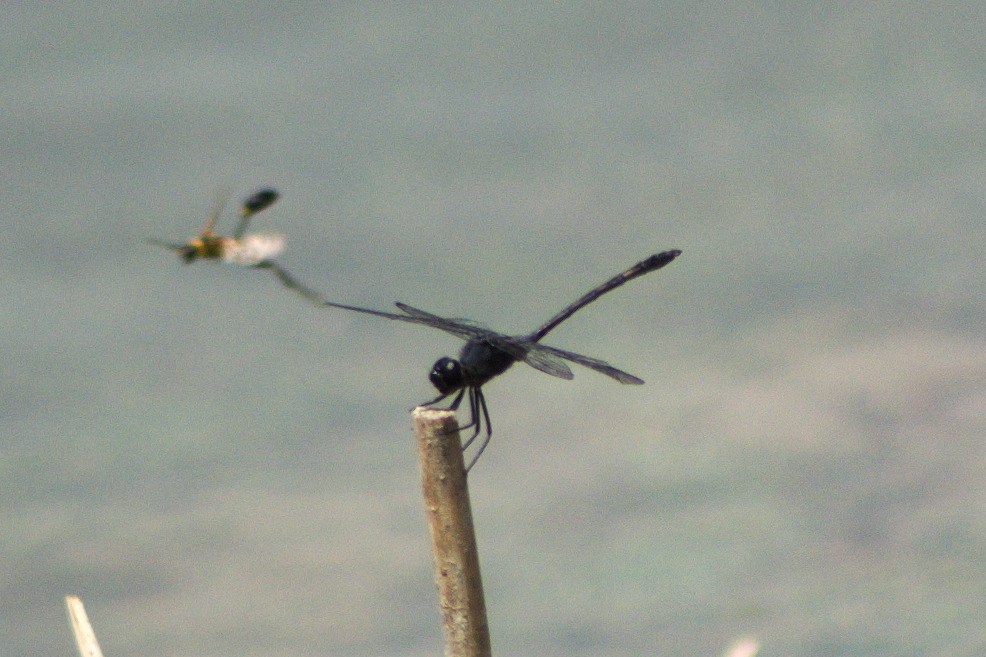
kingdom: Animalia
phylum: Arthropoda
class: Insecta
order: Odonata
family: Libellulidae
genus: Dythemis
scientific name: Dythemis nigrescens
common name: Black setwing
